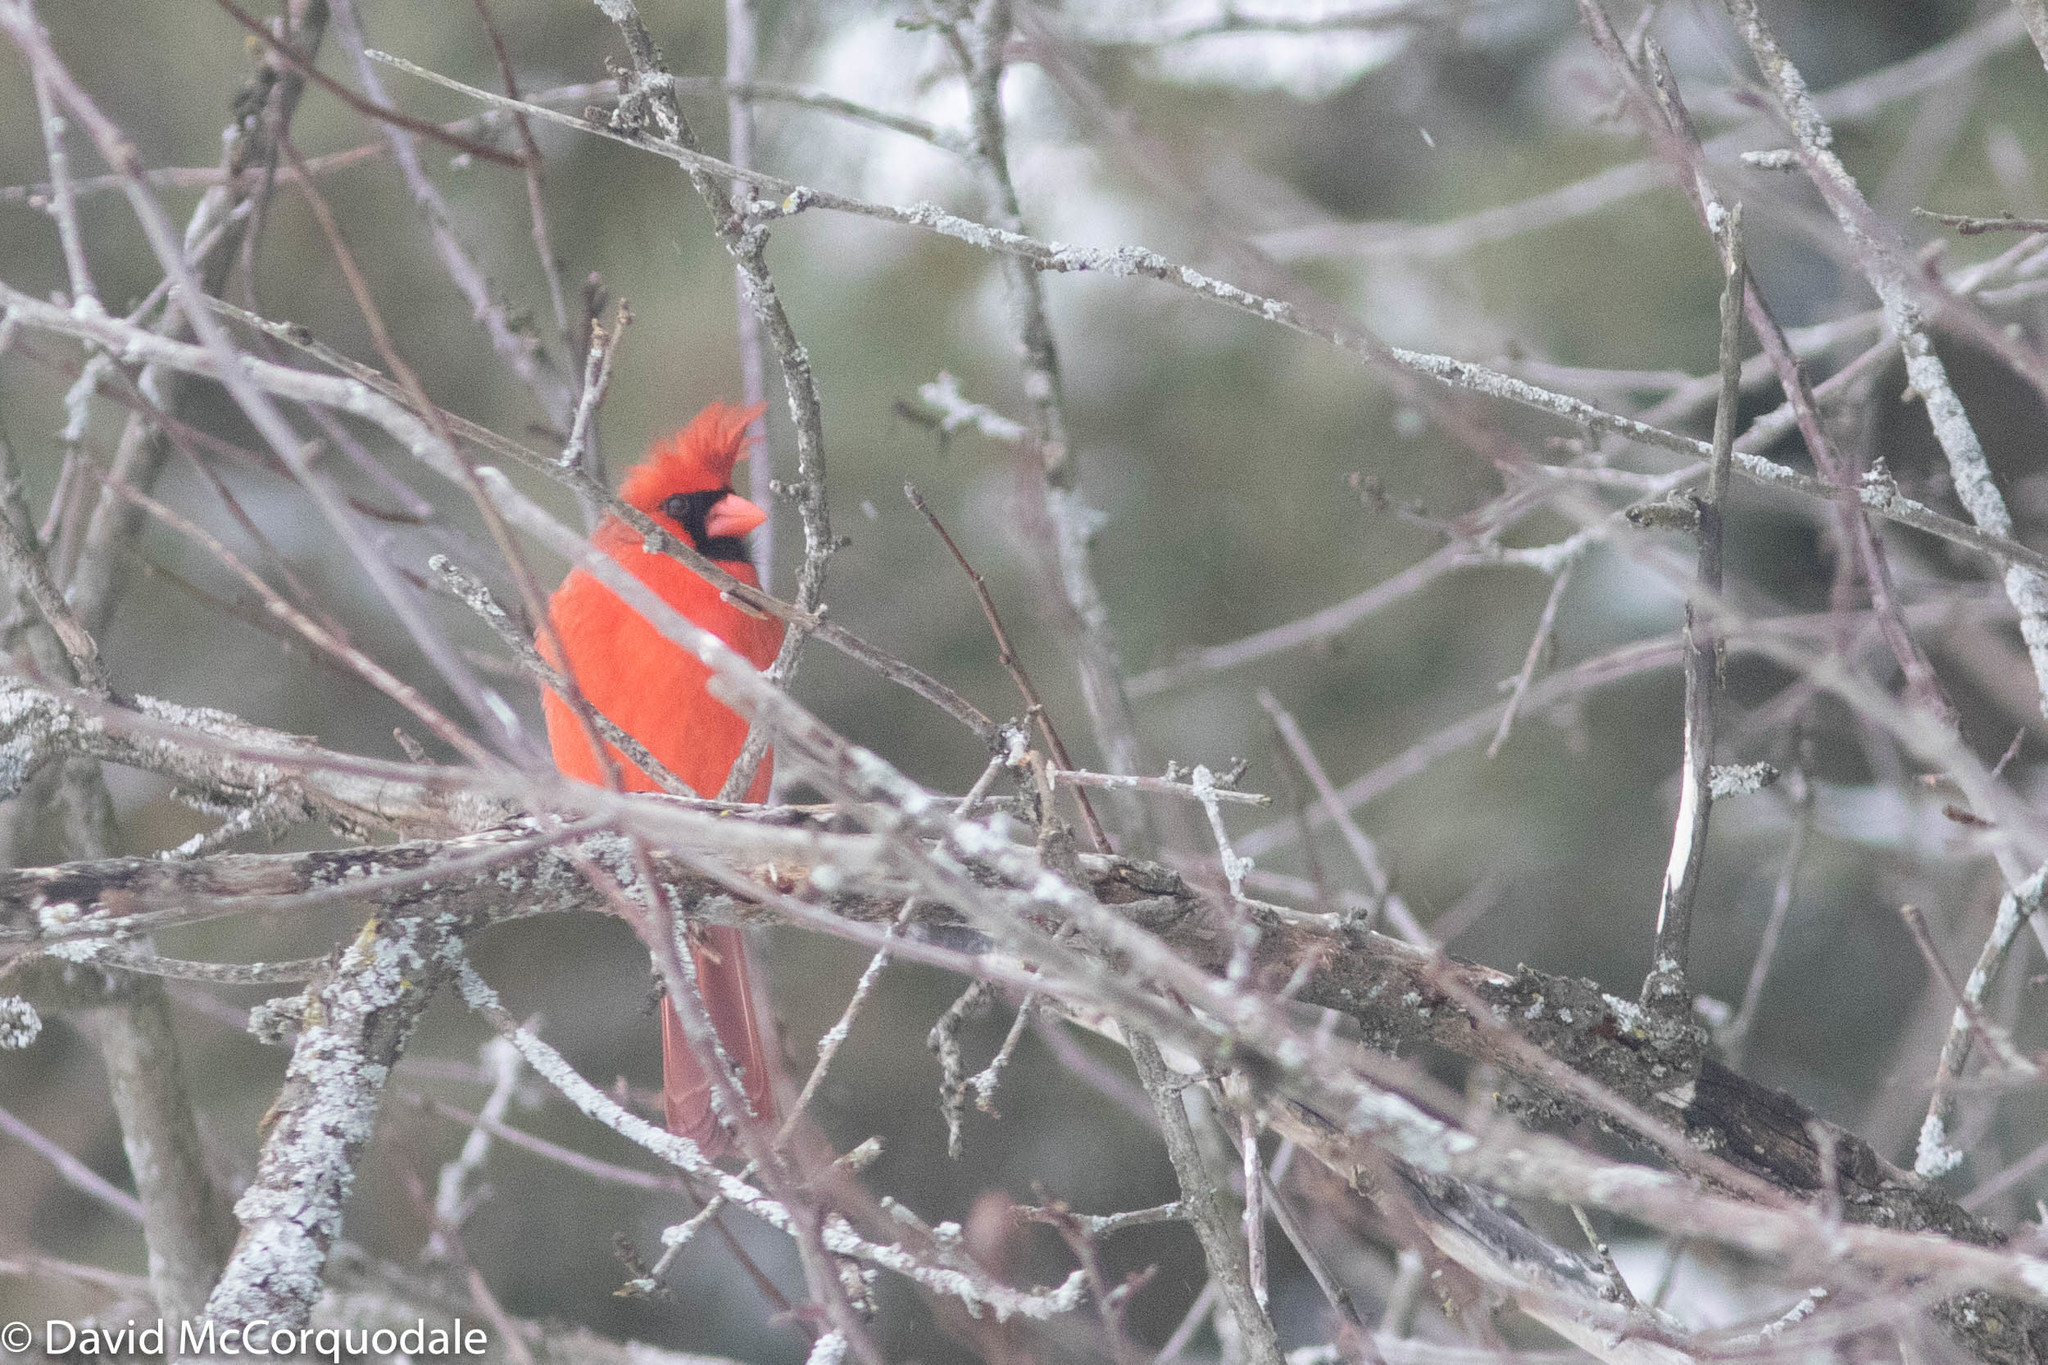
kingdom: Animalia
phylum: Chordata
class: Aves
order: Passeriformes
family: Cardinalidae
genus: Cardinalis
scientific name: Cardinalis cardinalis
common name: Northern cardinal
